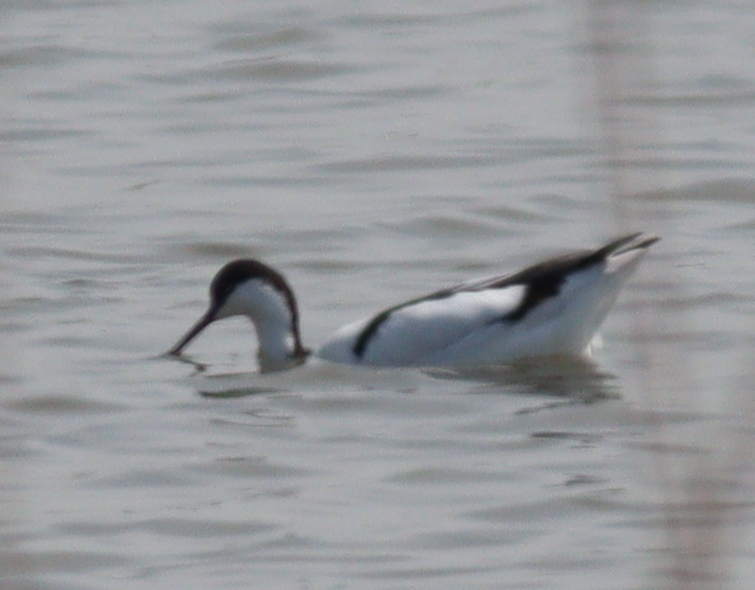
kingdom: Animalia
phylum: Chordata
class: Aves
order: Charadriiformes
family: Recurvirostridae
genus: Recurvirostra
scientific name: Recurvirostra avosetta
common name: Pied avocet
